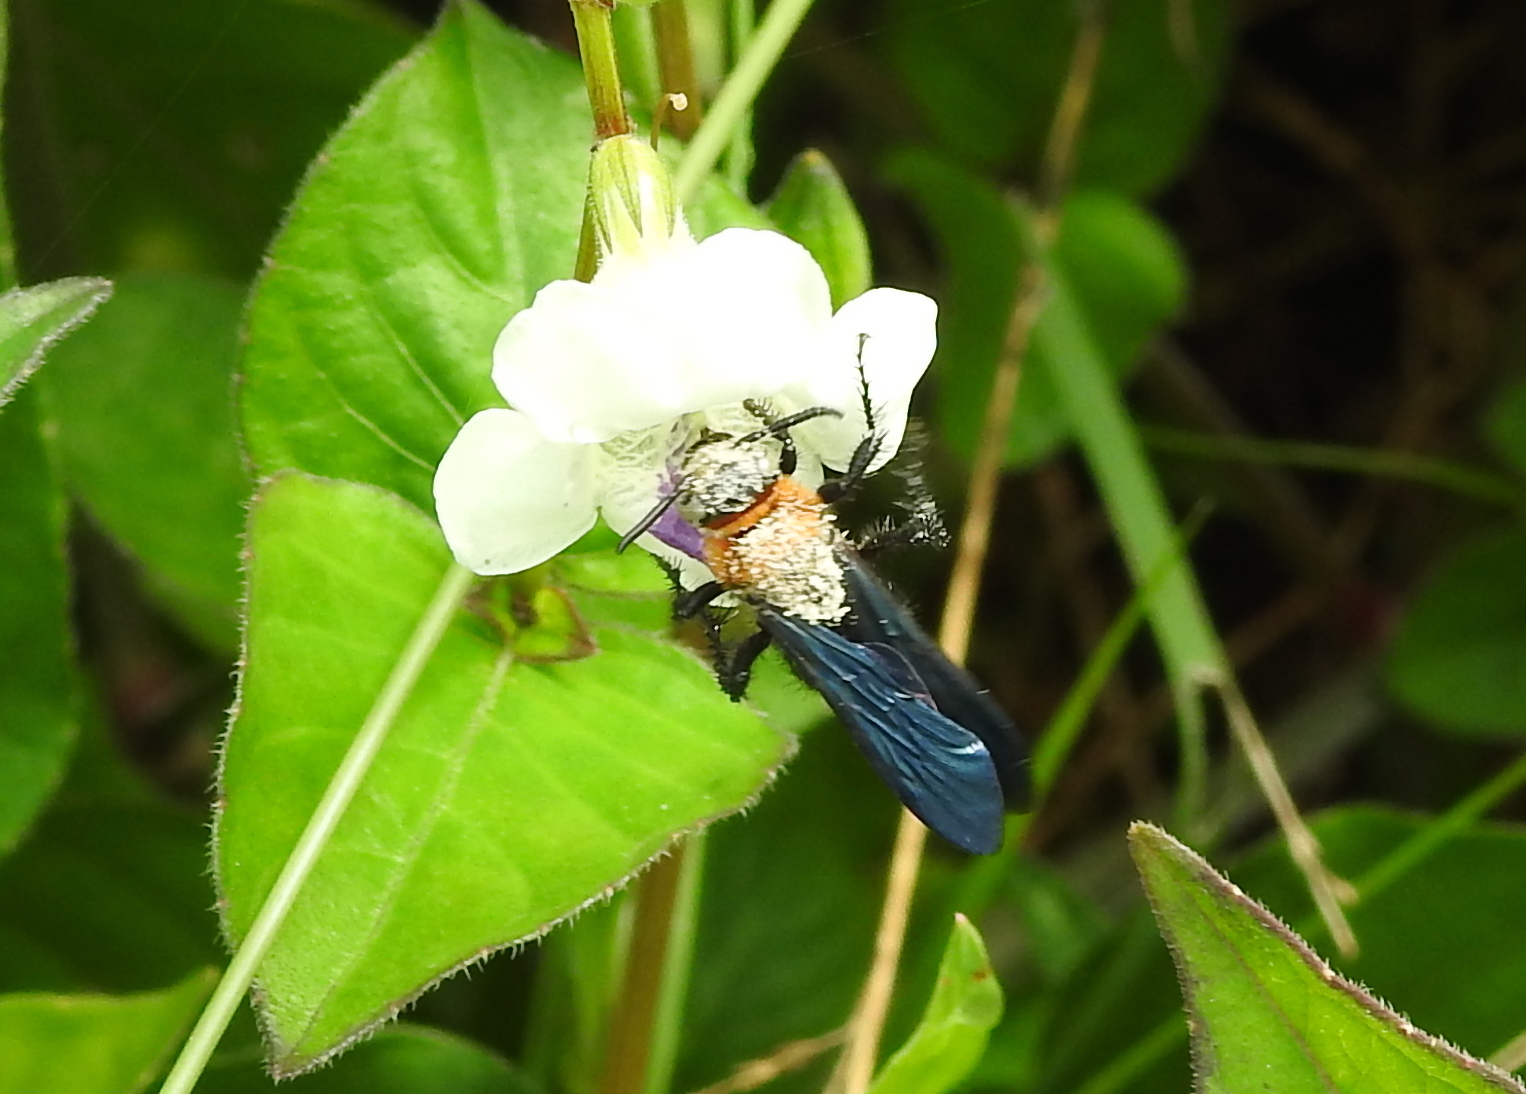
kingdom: Animalia
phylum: Arthropoda
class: Insecta
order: Hymenoptera
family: Scoliidae
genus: Campsomeriella
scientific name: Campsomeriella collaris
